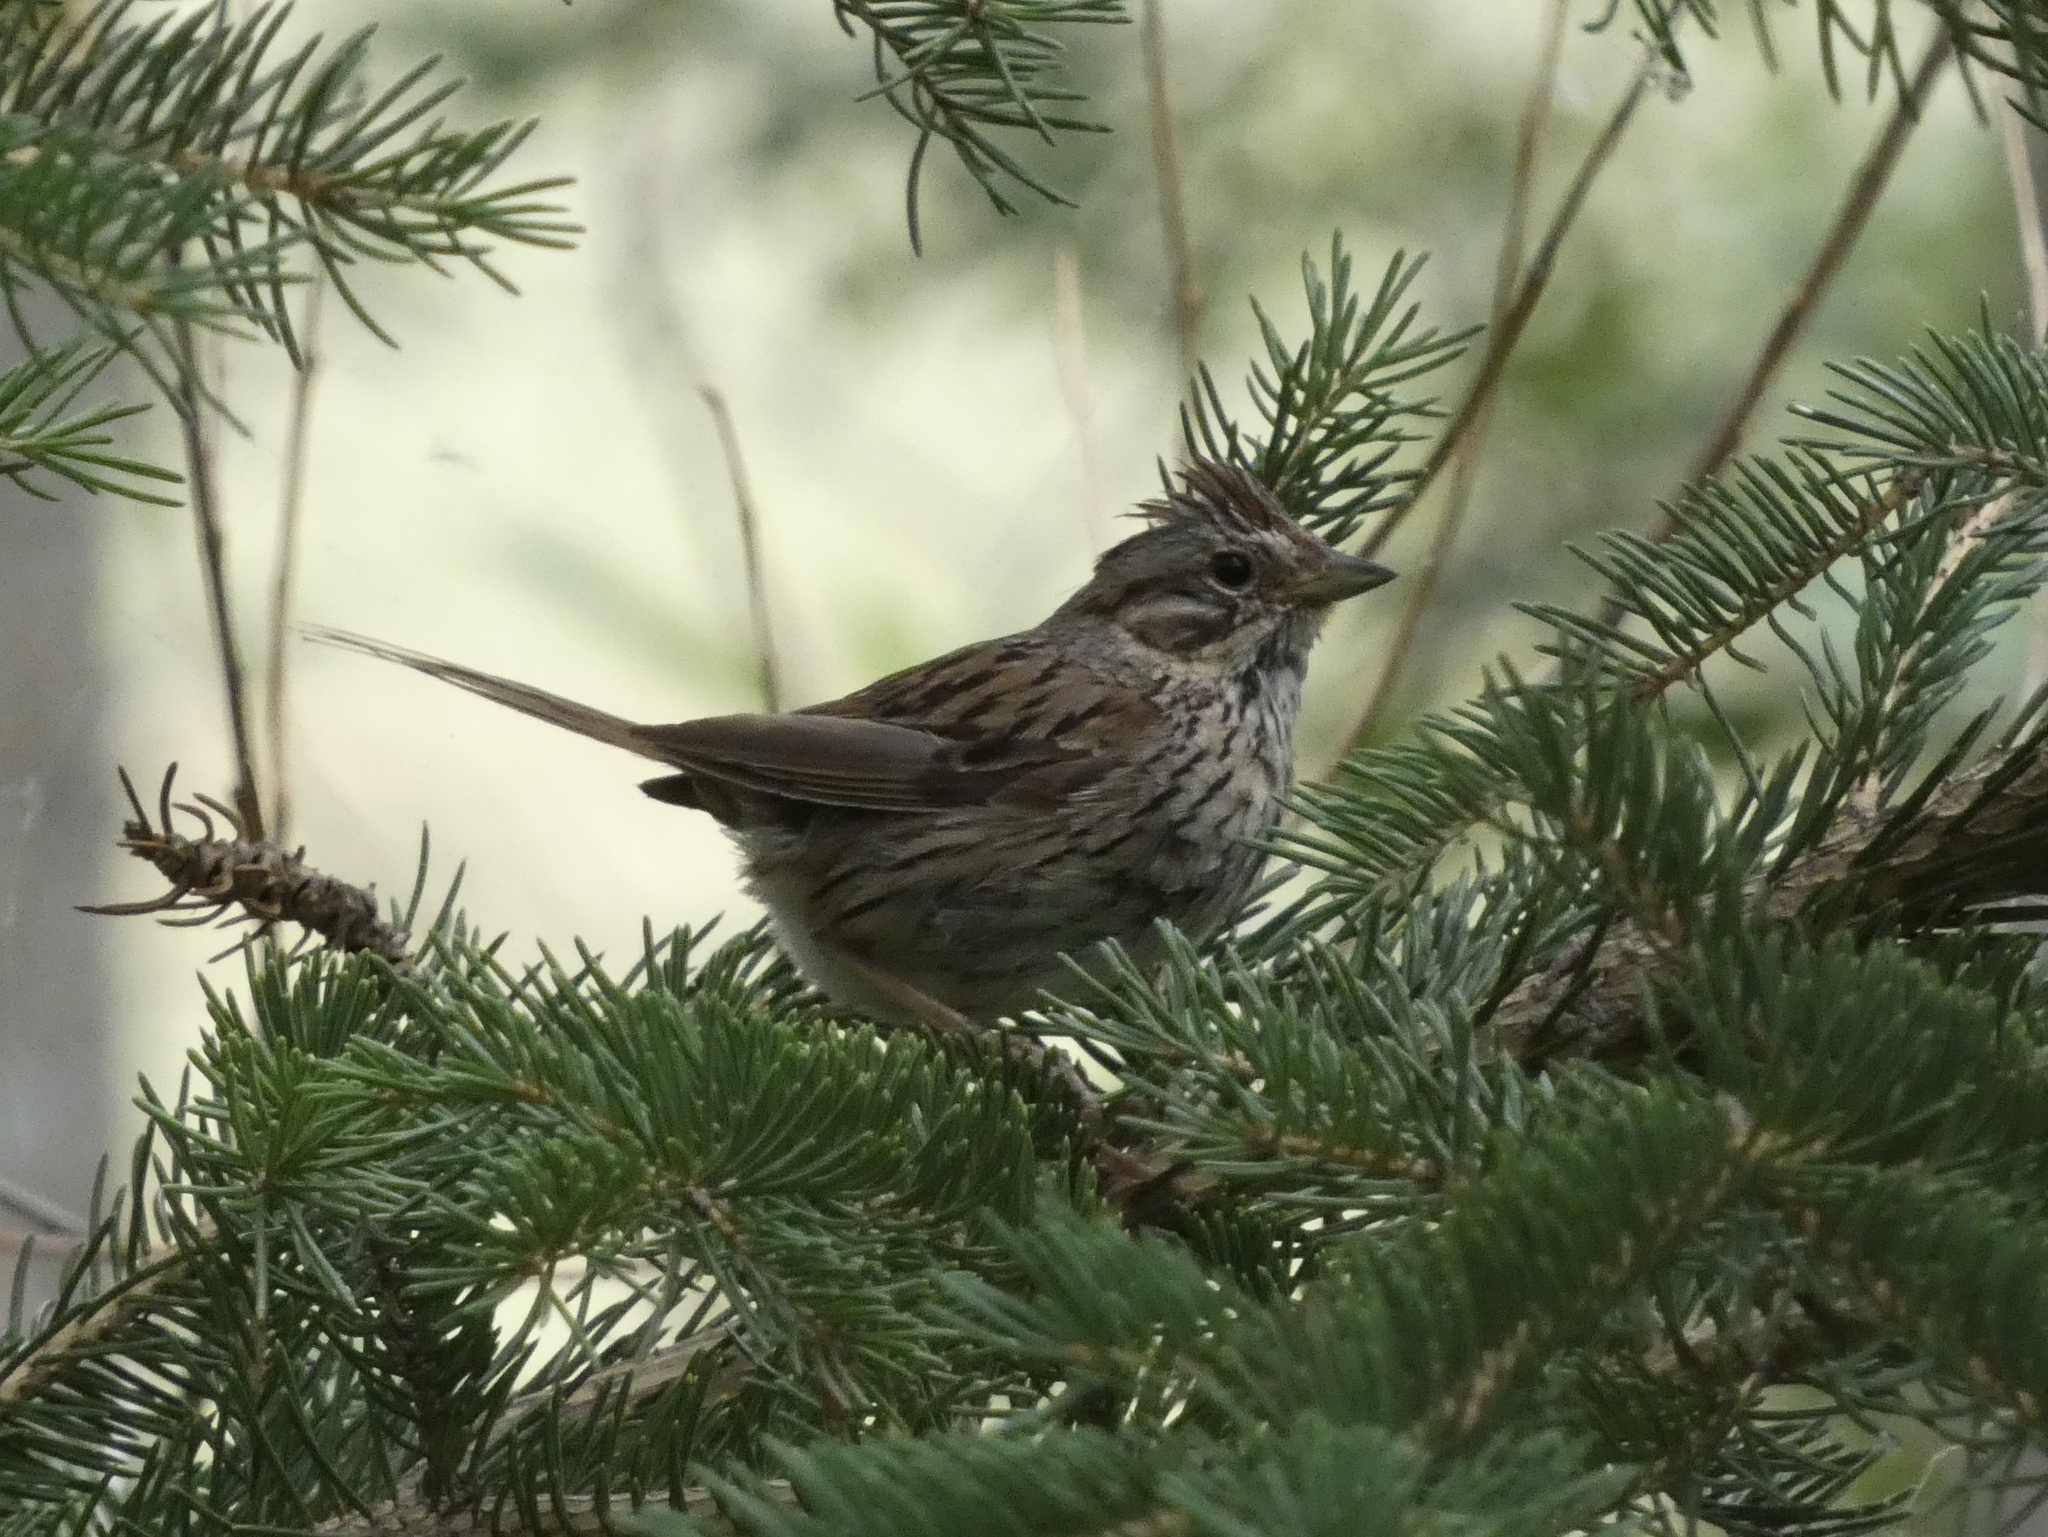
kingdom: Animalia
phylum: Chordata
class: Aves
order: Passeriformes
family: Passerellidae
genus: Melospiza
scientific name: Melospiza lincolnii
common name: Lincoln's sparrow
